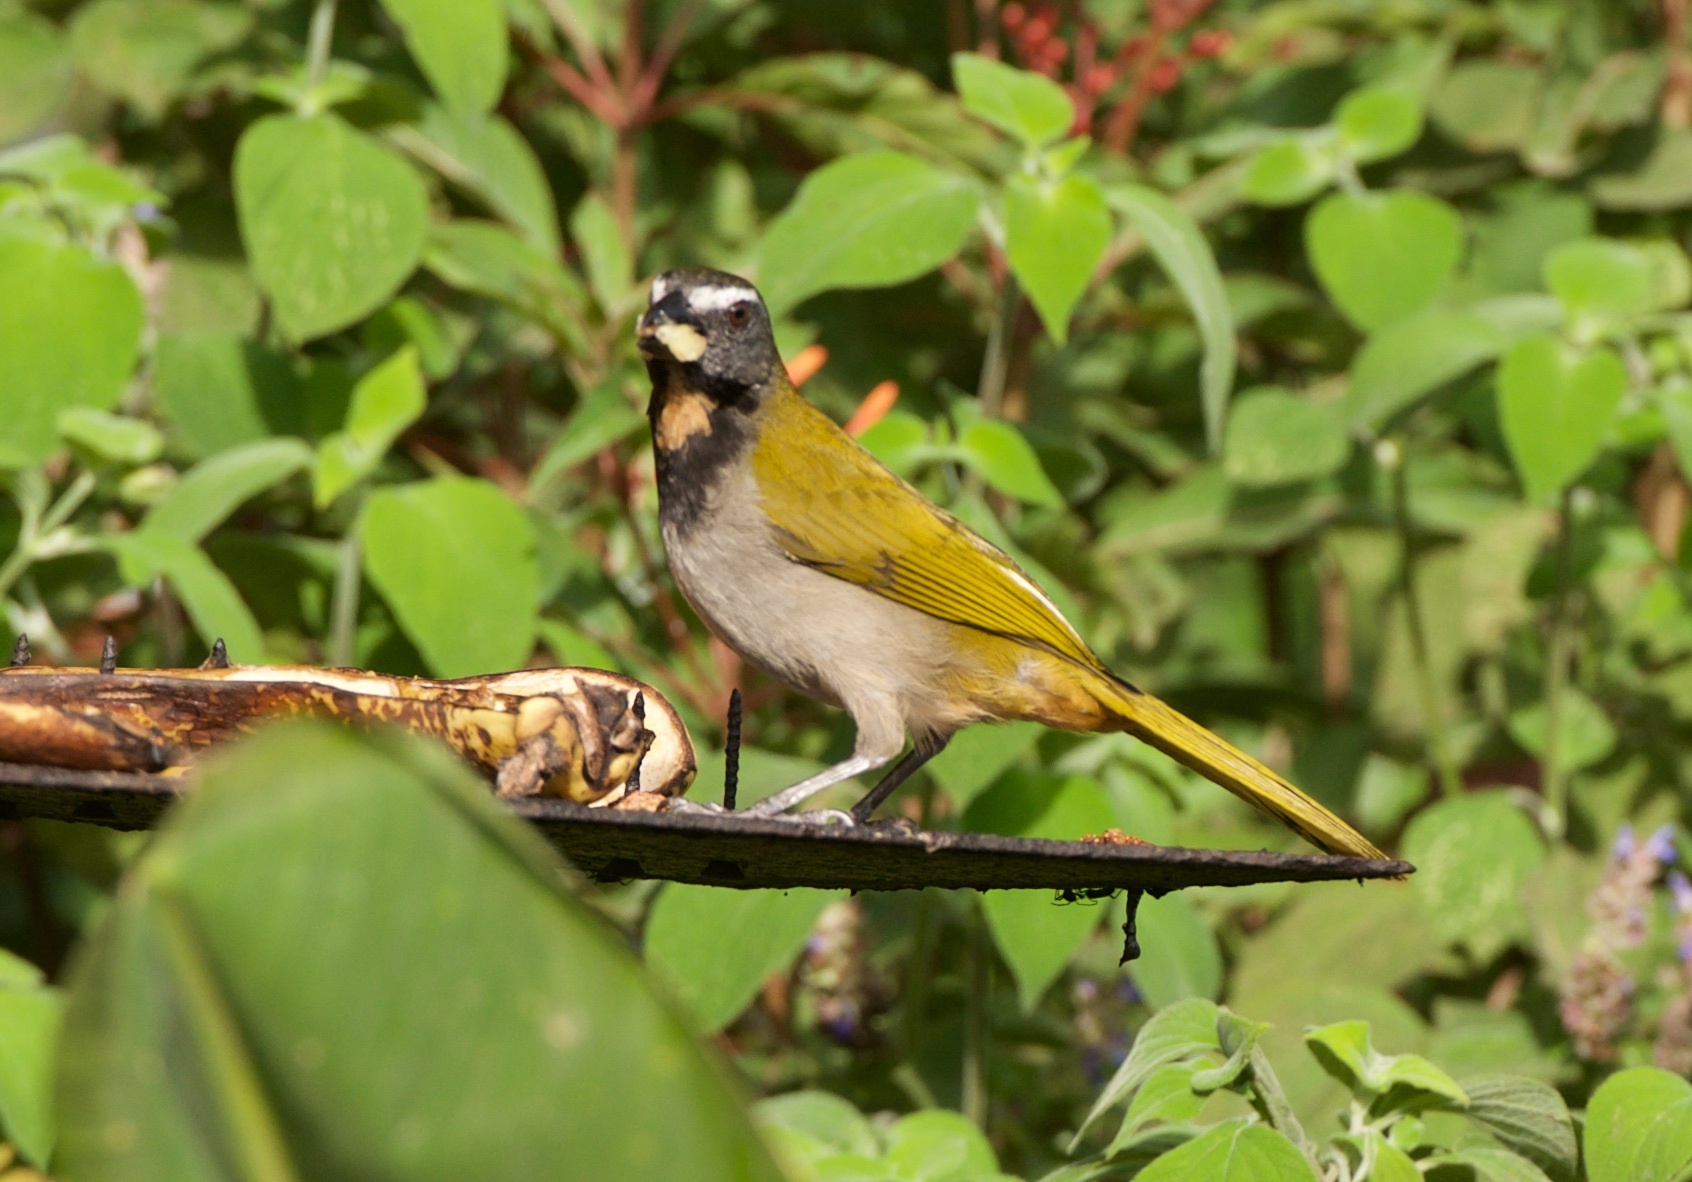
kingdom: Animalia
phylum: Chordata
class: Aves
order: Passeriformes
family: Thraupidae
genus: Saltator
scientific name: Saltator maximus
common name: Buff-throated saltator
